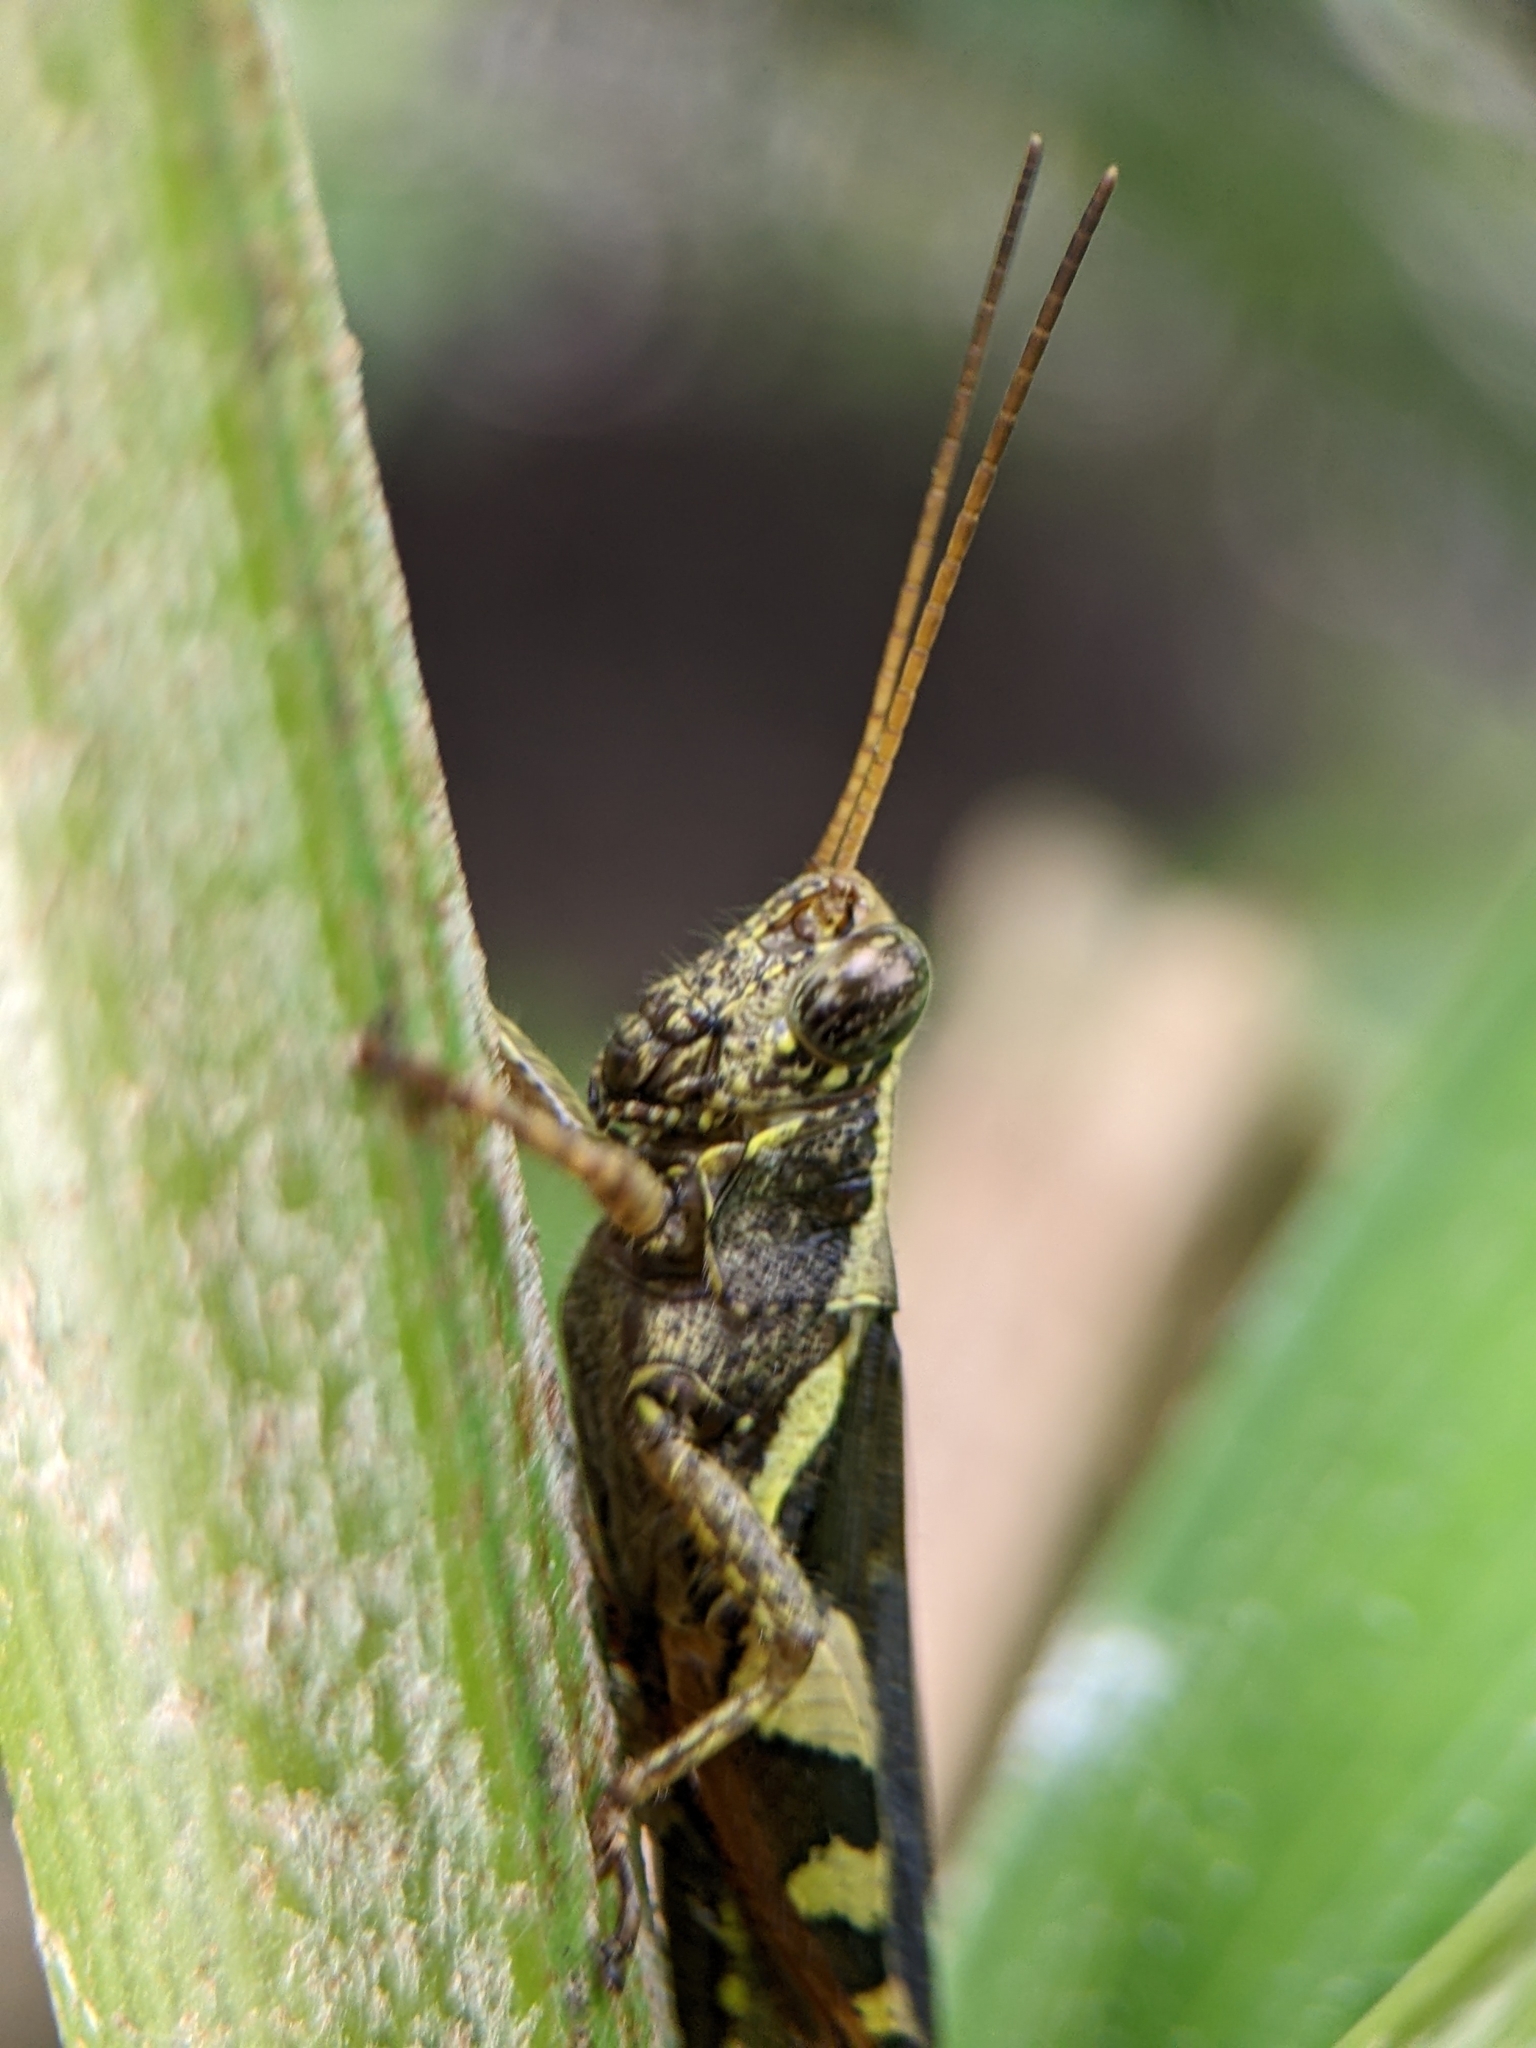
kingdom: Animalia
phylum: Arthropoda
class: Insecta
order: Orthoptera
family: Acrididae
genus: Xenocatantops
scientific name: Xenocatantops humile
